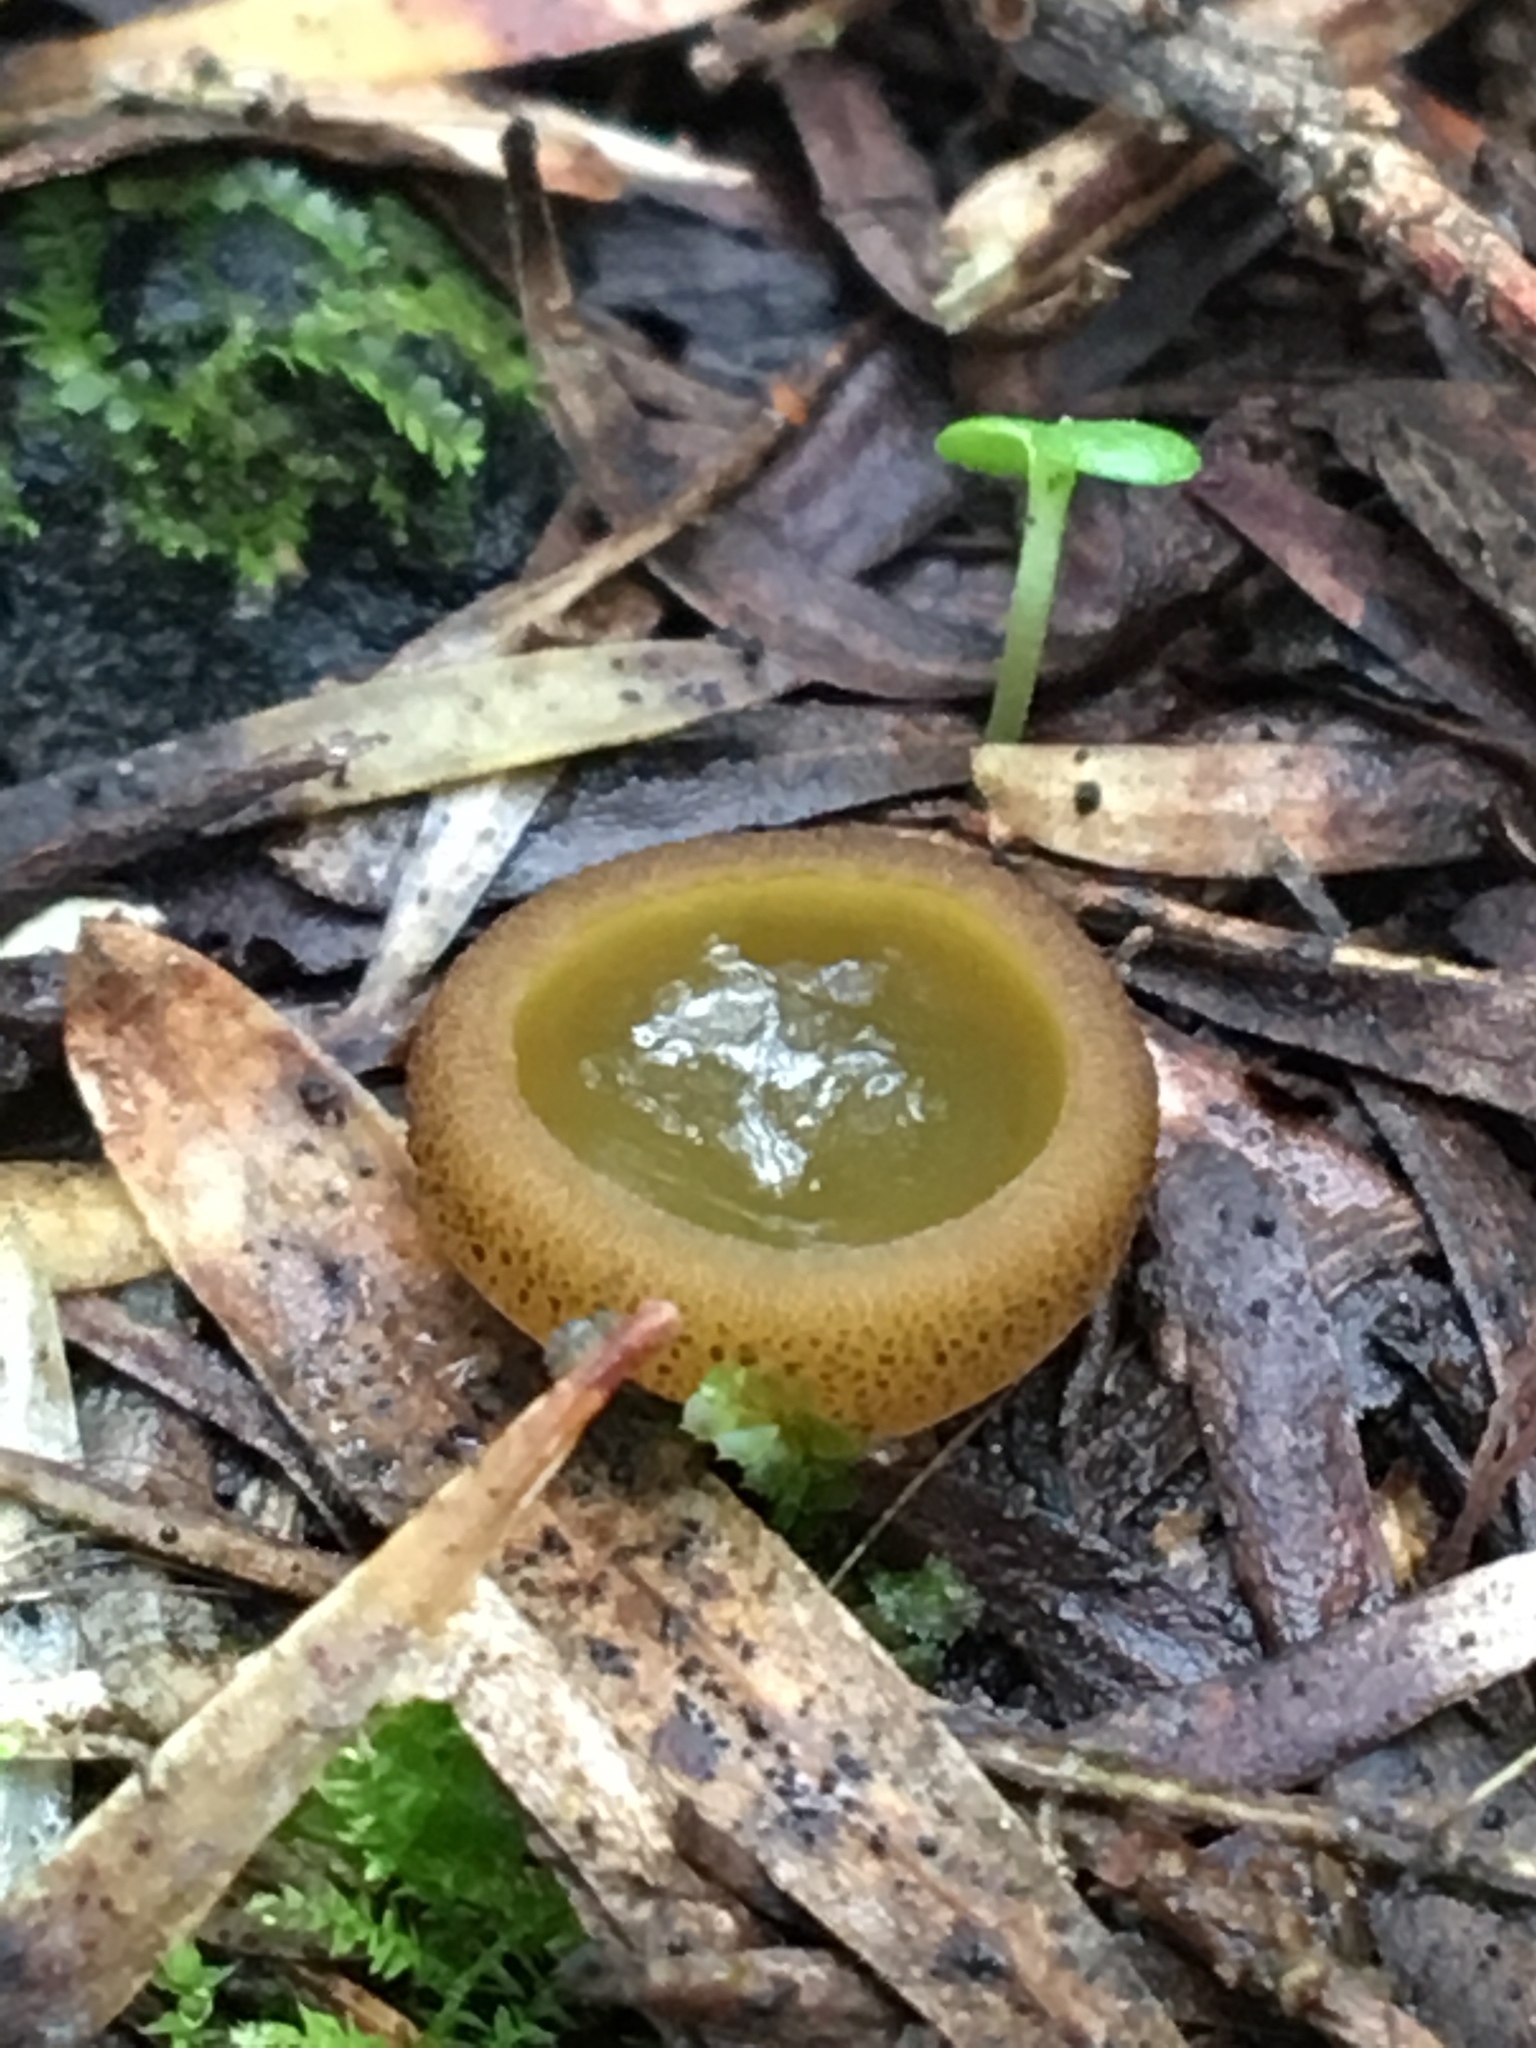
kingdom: Fungi
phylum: Ascomycota
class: Pezizomycetes
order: Pezizales
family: Pyronemataceae
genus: Aleurina
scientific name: Aleurina ferruginea
